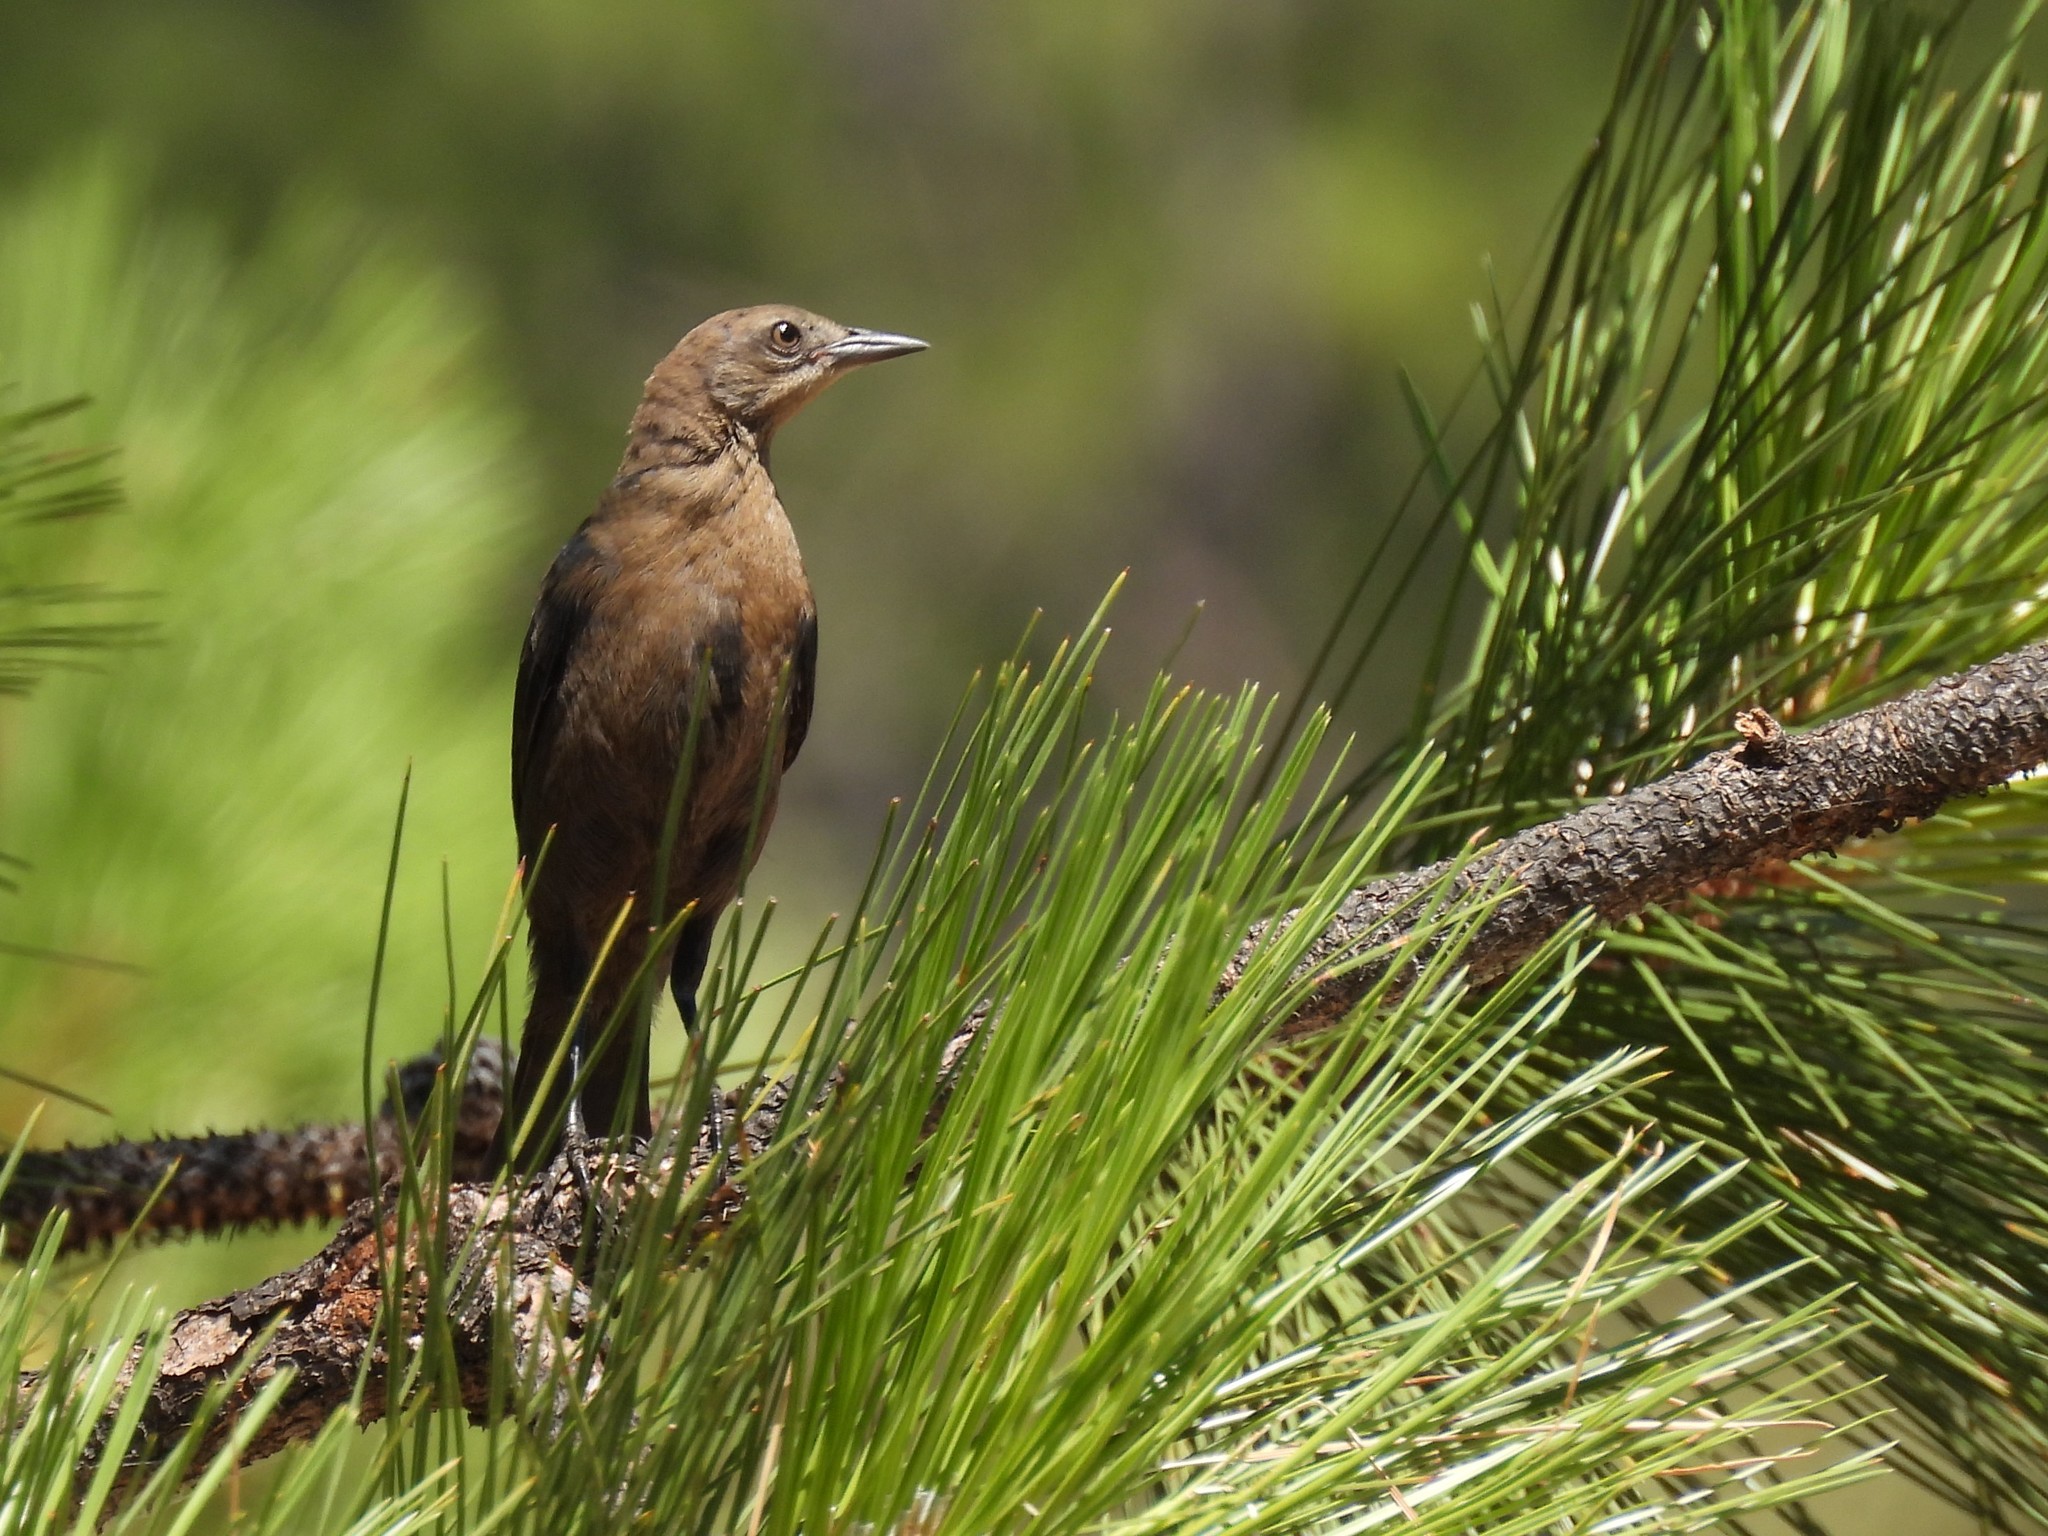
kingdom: Animalia
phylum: Chordata
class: Aves
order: Passeriformes
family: Icteridae
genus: Euphagus
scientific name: Euphagus cyanocephalus
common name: Brewer's blackbird
